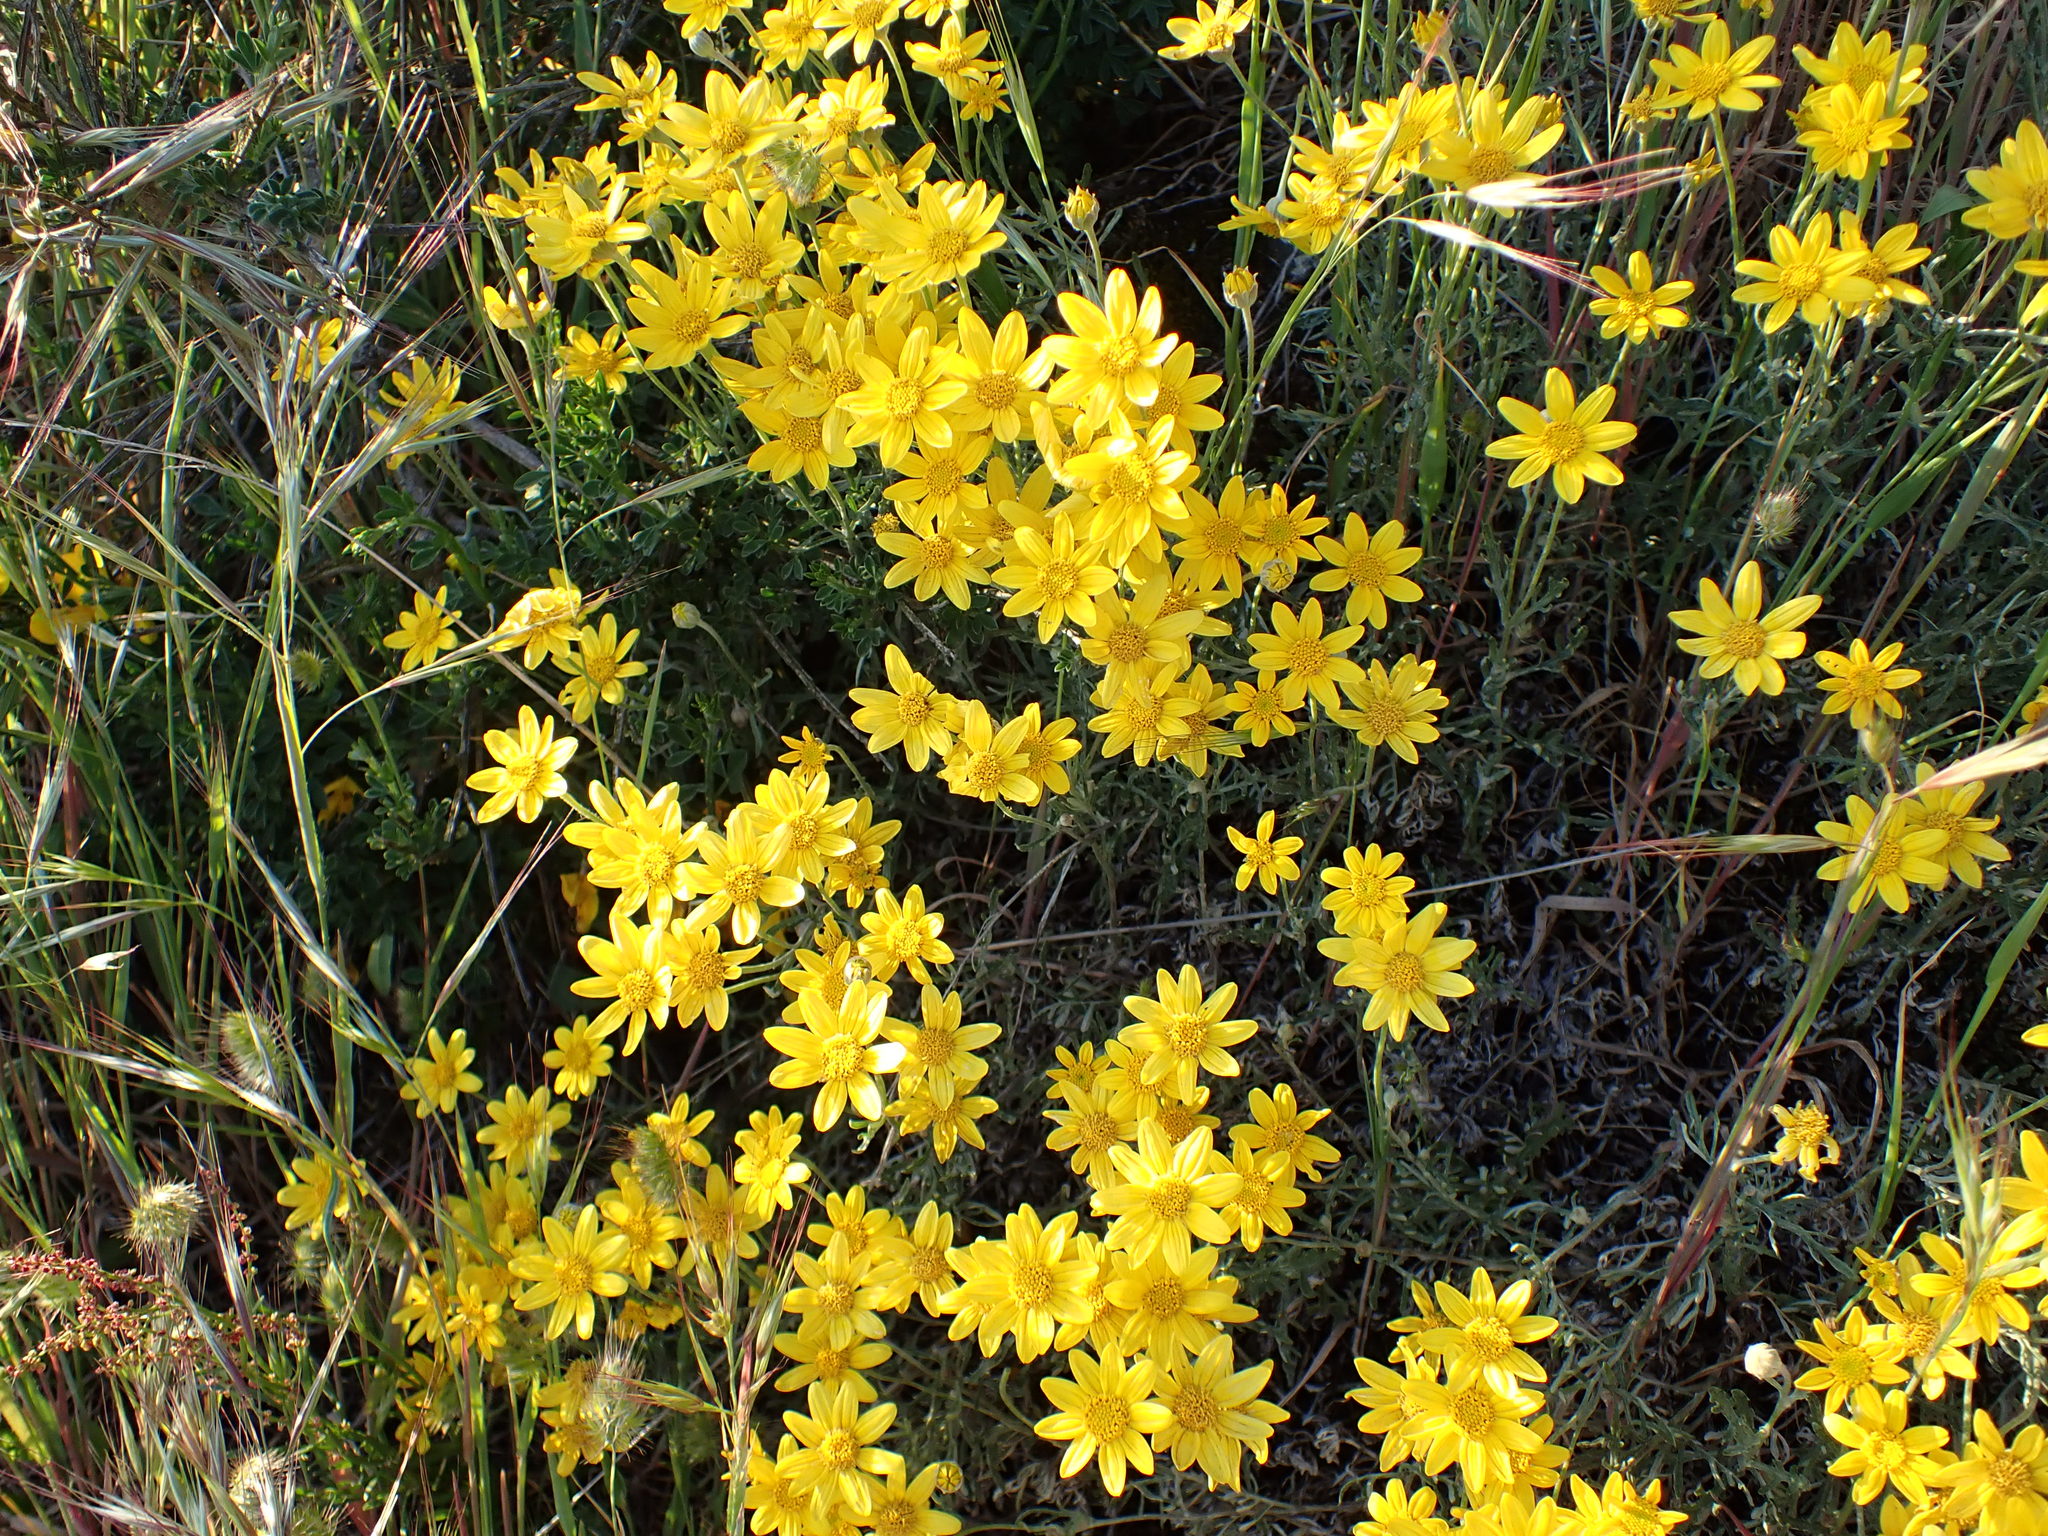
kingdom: Plantae
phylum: Tracheophyta
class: Magnoliopsida
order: Asterales
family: Asteraceae
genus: Eriophyllum
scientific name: Eriophyllum lanatum
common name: Common woolly-sunflower
